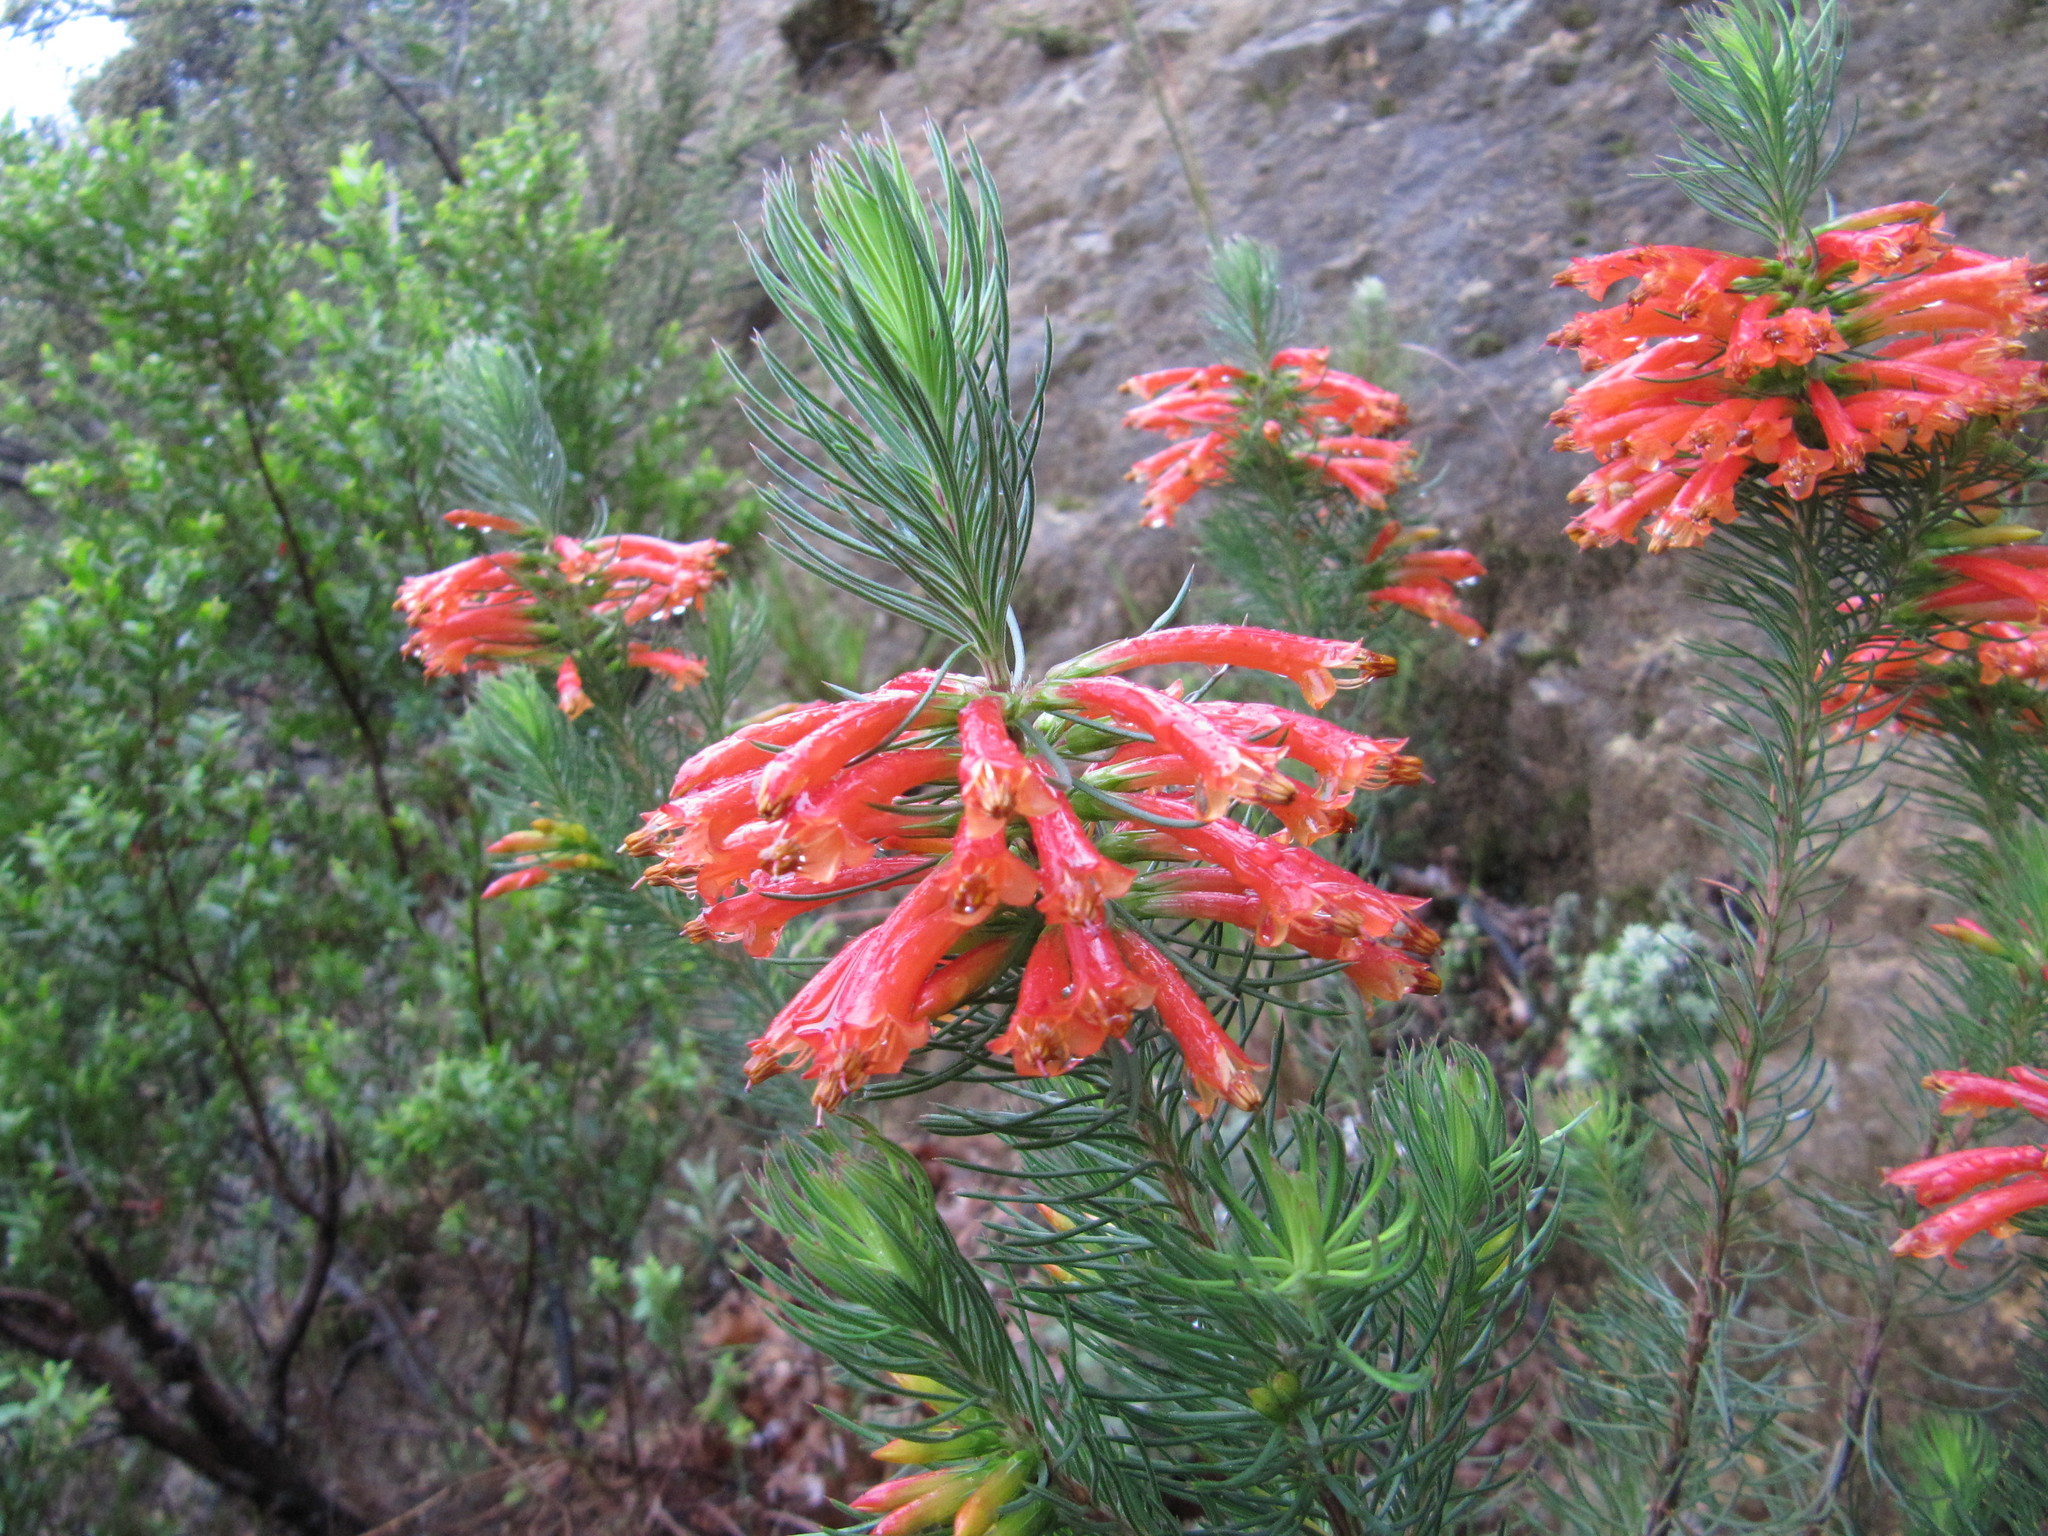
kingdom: Plantae
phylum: Tracheophyta
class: Magnoliopsida
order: Ericales
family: Ericaceae
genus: Erica
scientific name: Erica grandiflora
